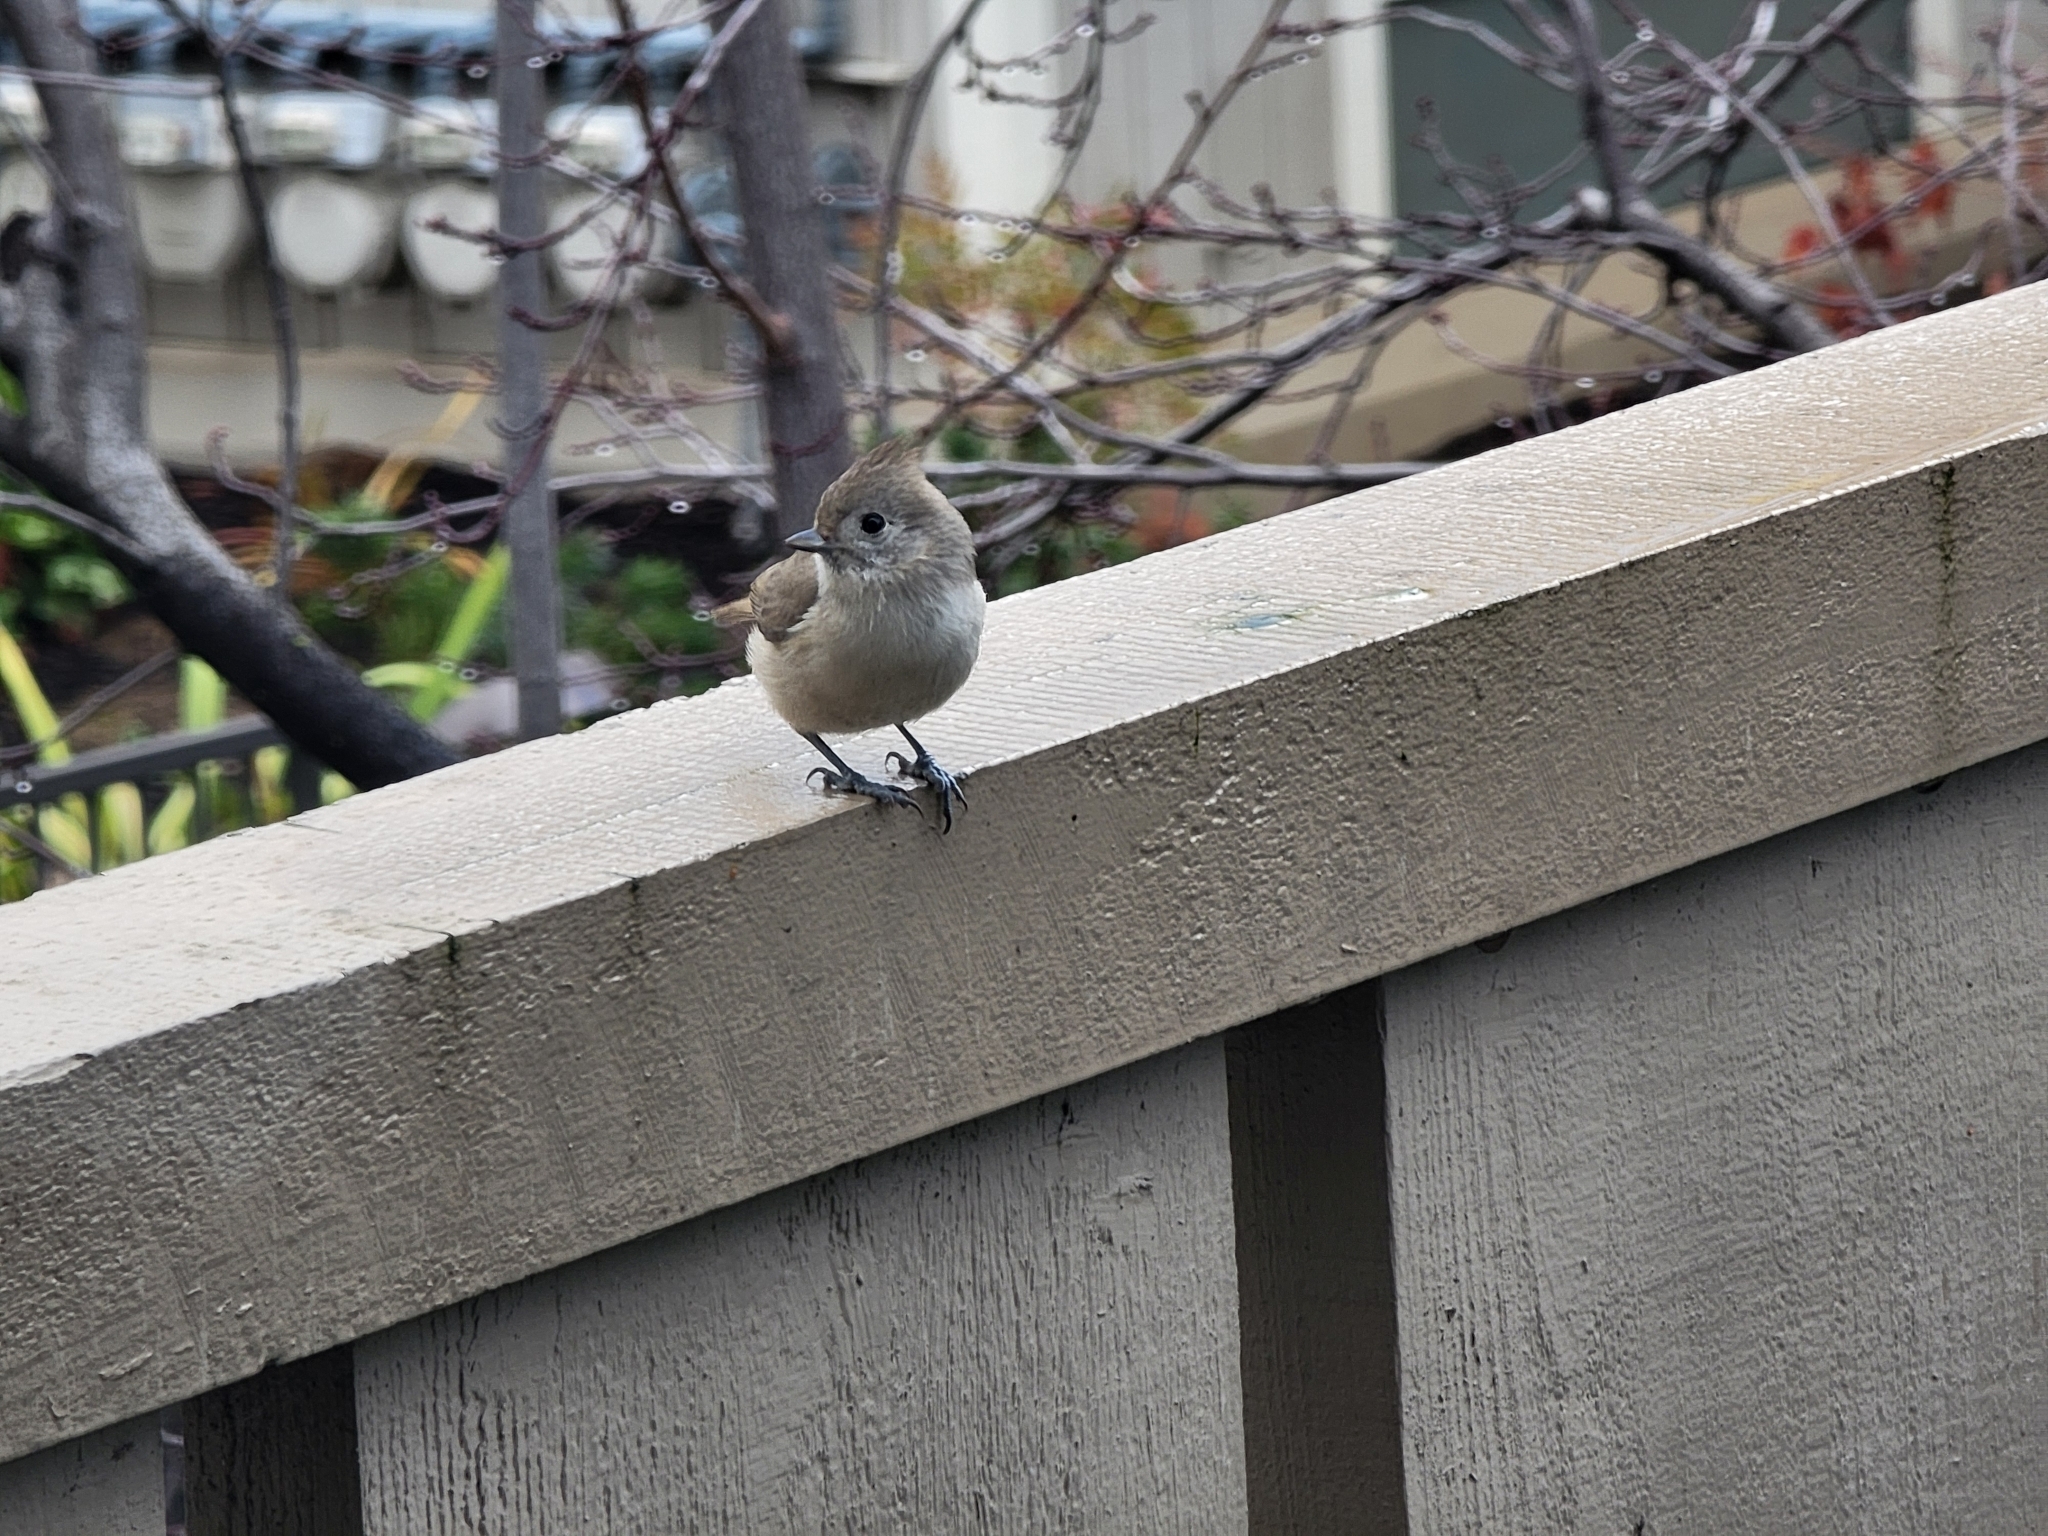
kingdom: Animalia
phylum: Chordata
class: Aves
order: Passeriformes
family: Paridae
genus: Baeolophus
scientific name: Baeolophus inornatus
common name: Oak titmouse
